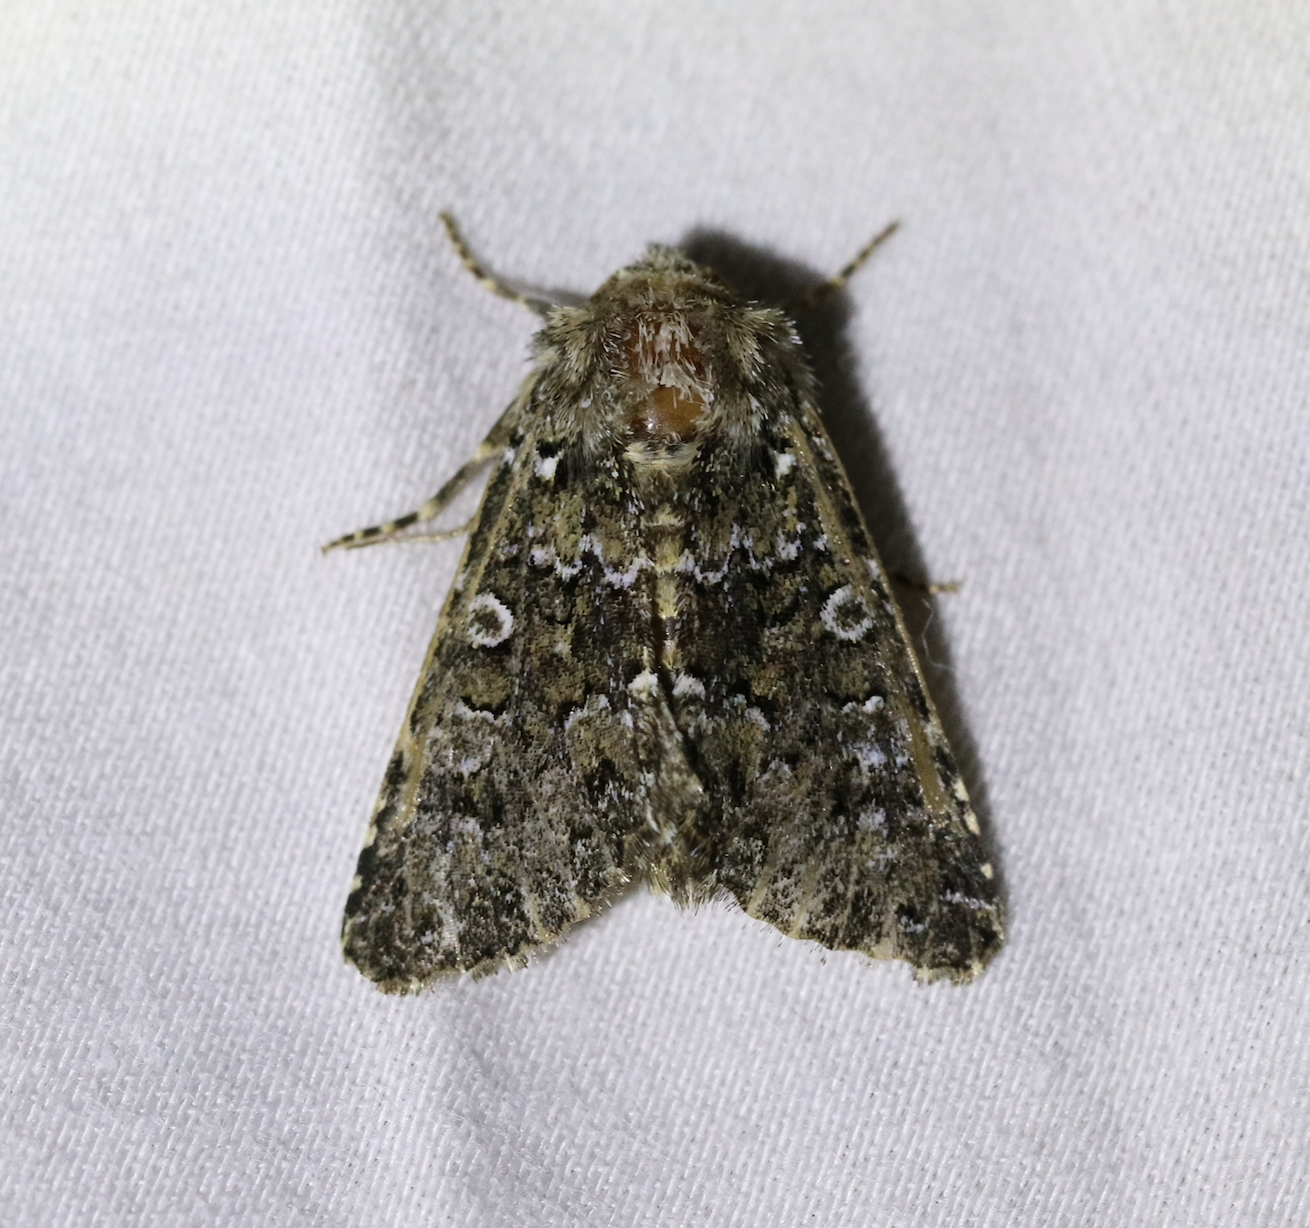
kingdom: Animalia
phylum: Arthropoda
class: Insecta
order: Lepidoptera
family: Noctuidae
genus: Hadena
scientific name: Hadena magnolii
